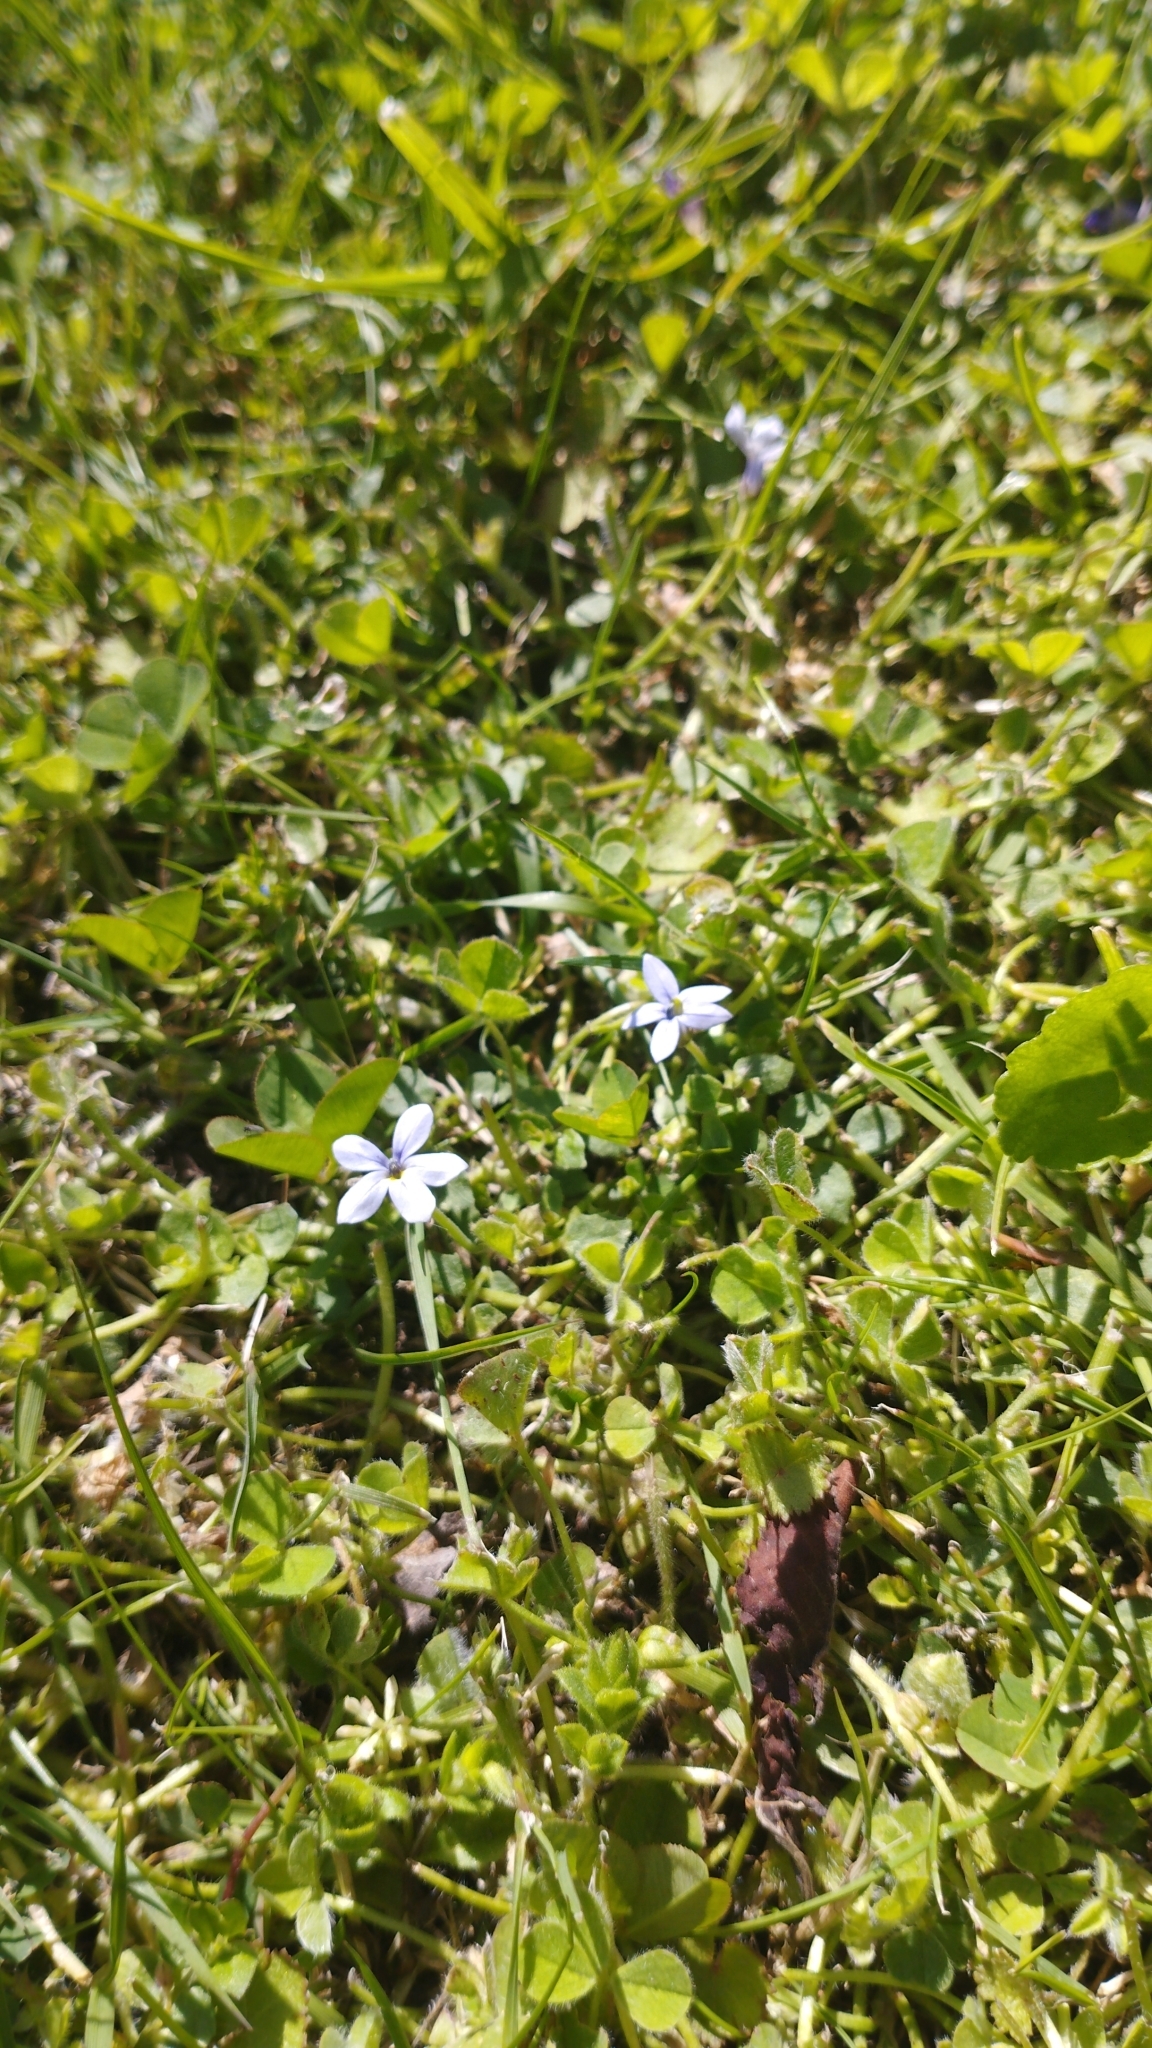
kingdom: Plantae
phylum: Tracheophyta
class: Magnoliopsida
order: Asterales
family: Campanulaceae
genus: Lobelia
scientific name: Lobelia pedunculata
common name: Matted pratia
